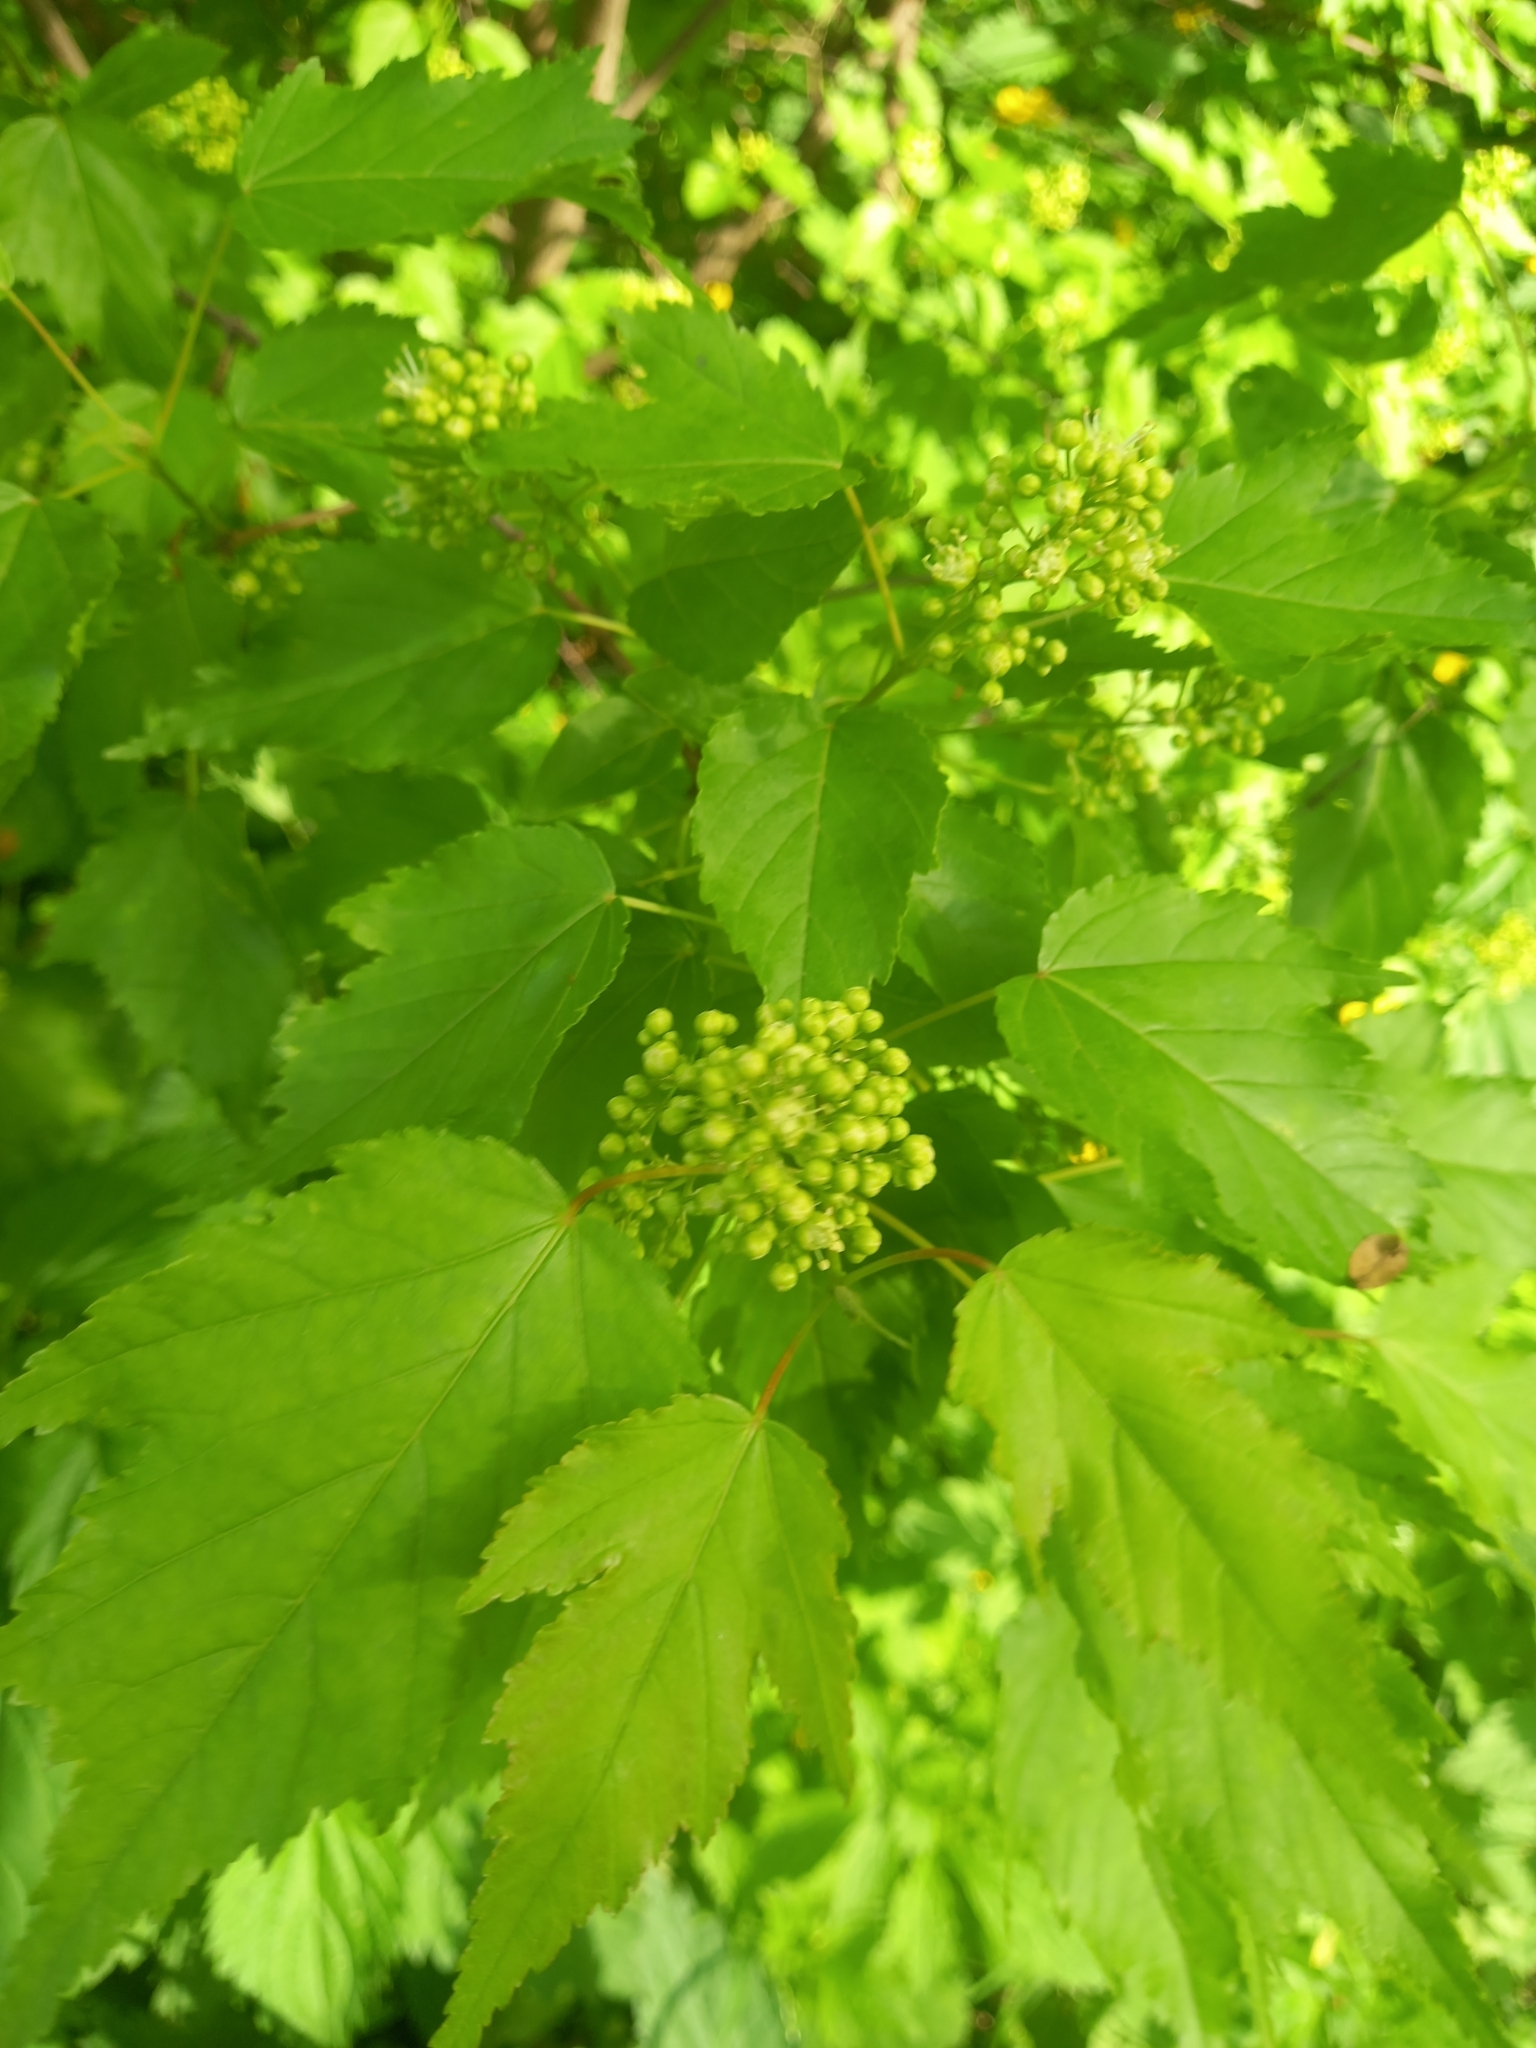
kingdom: Plantae
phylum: Tracheophyta
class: Magnoliopsida
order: Sapindales
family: Sapindaceae
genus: Acer
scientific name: Acer tataricum
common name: Tartar maple
